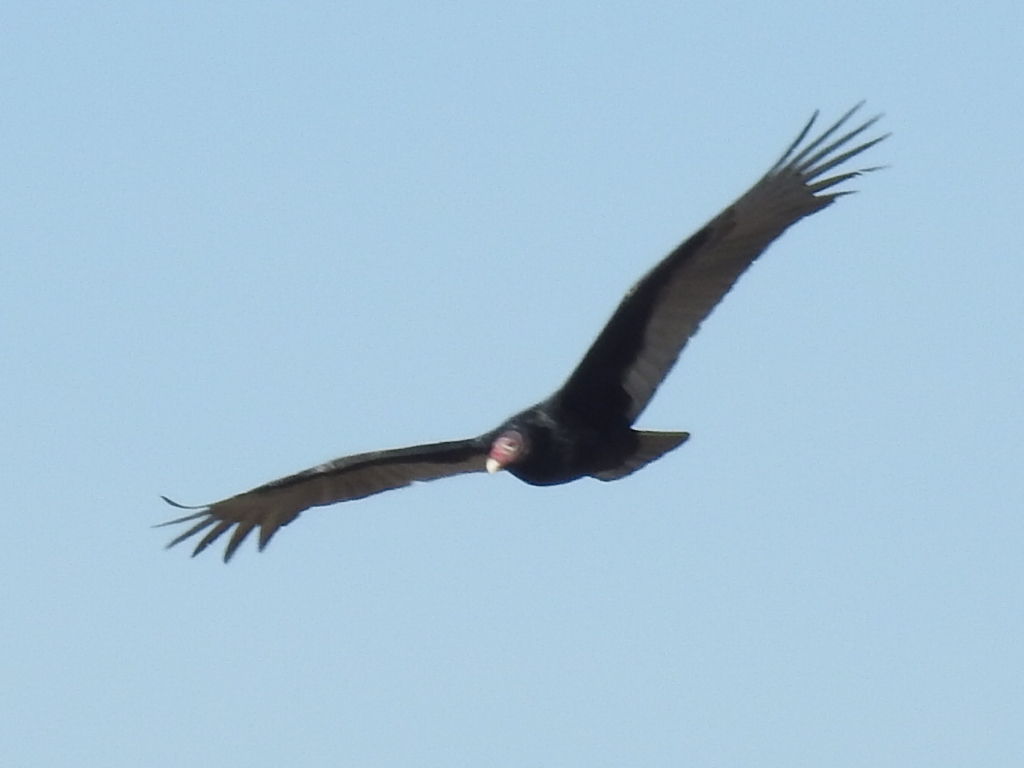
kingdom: Animalia
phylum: Chordata
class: Aves
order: Accipitriformes
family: Cathartidae
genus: Cathartes
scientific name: Cathartes aura
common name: Turkey vulture
